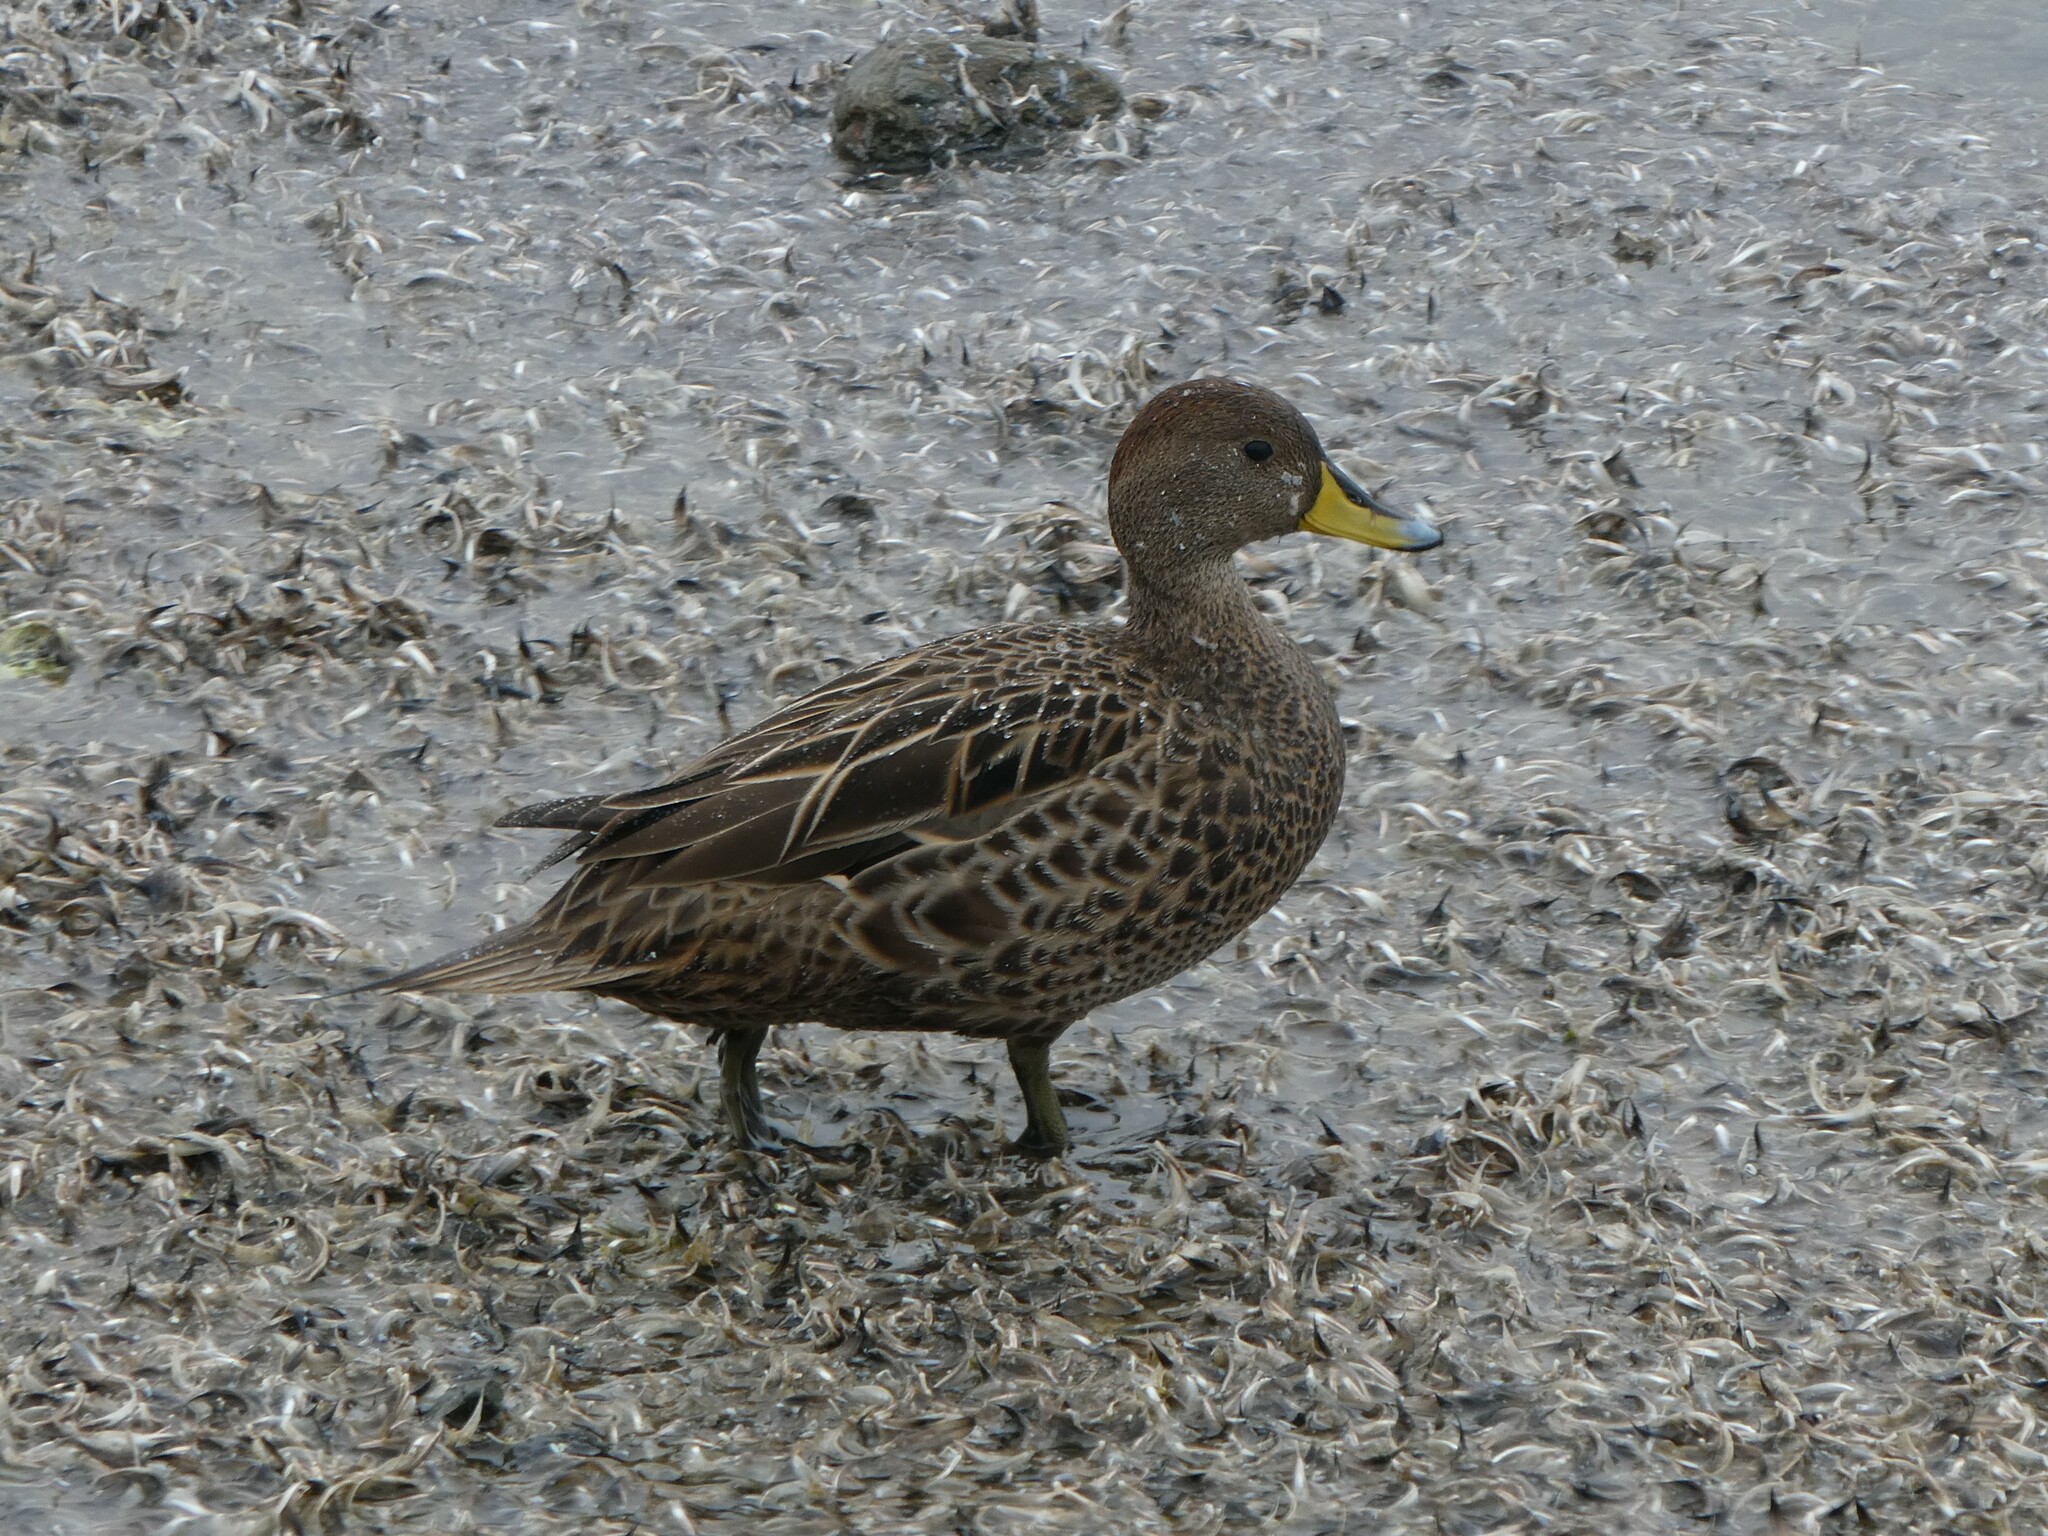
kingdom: Animalia
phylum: Chordata
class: Aves
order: Anseriformes
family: Anatidae
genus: Anas
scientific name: Anas georgica
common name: Yellow-billed pintail
